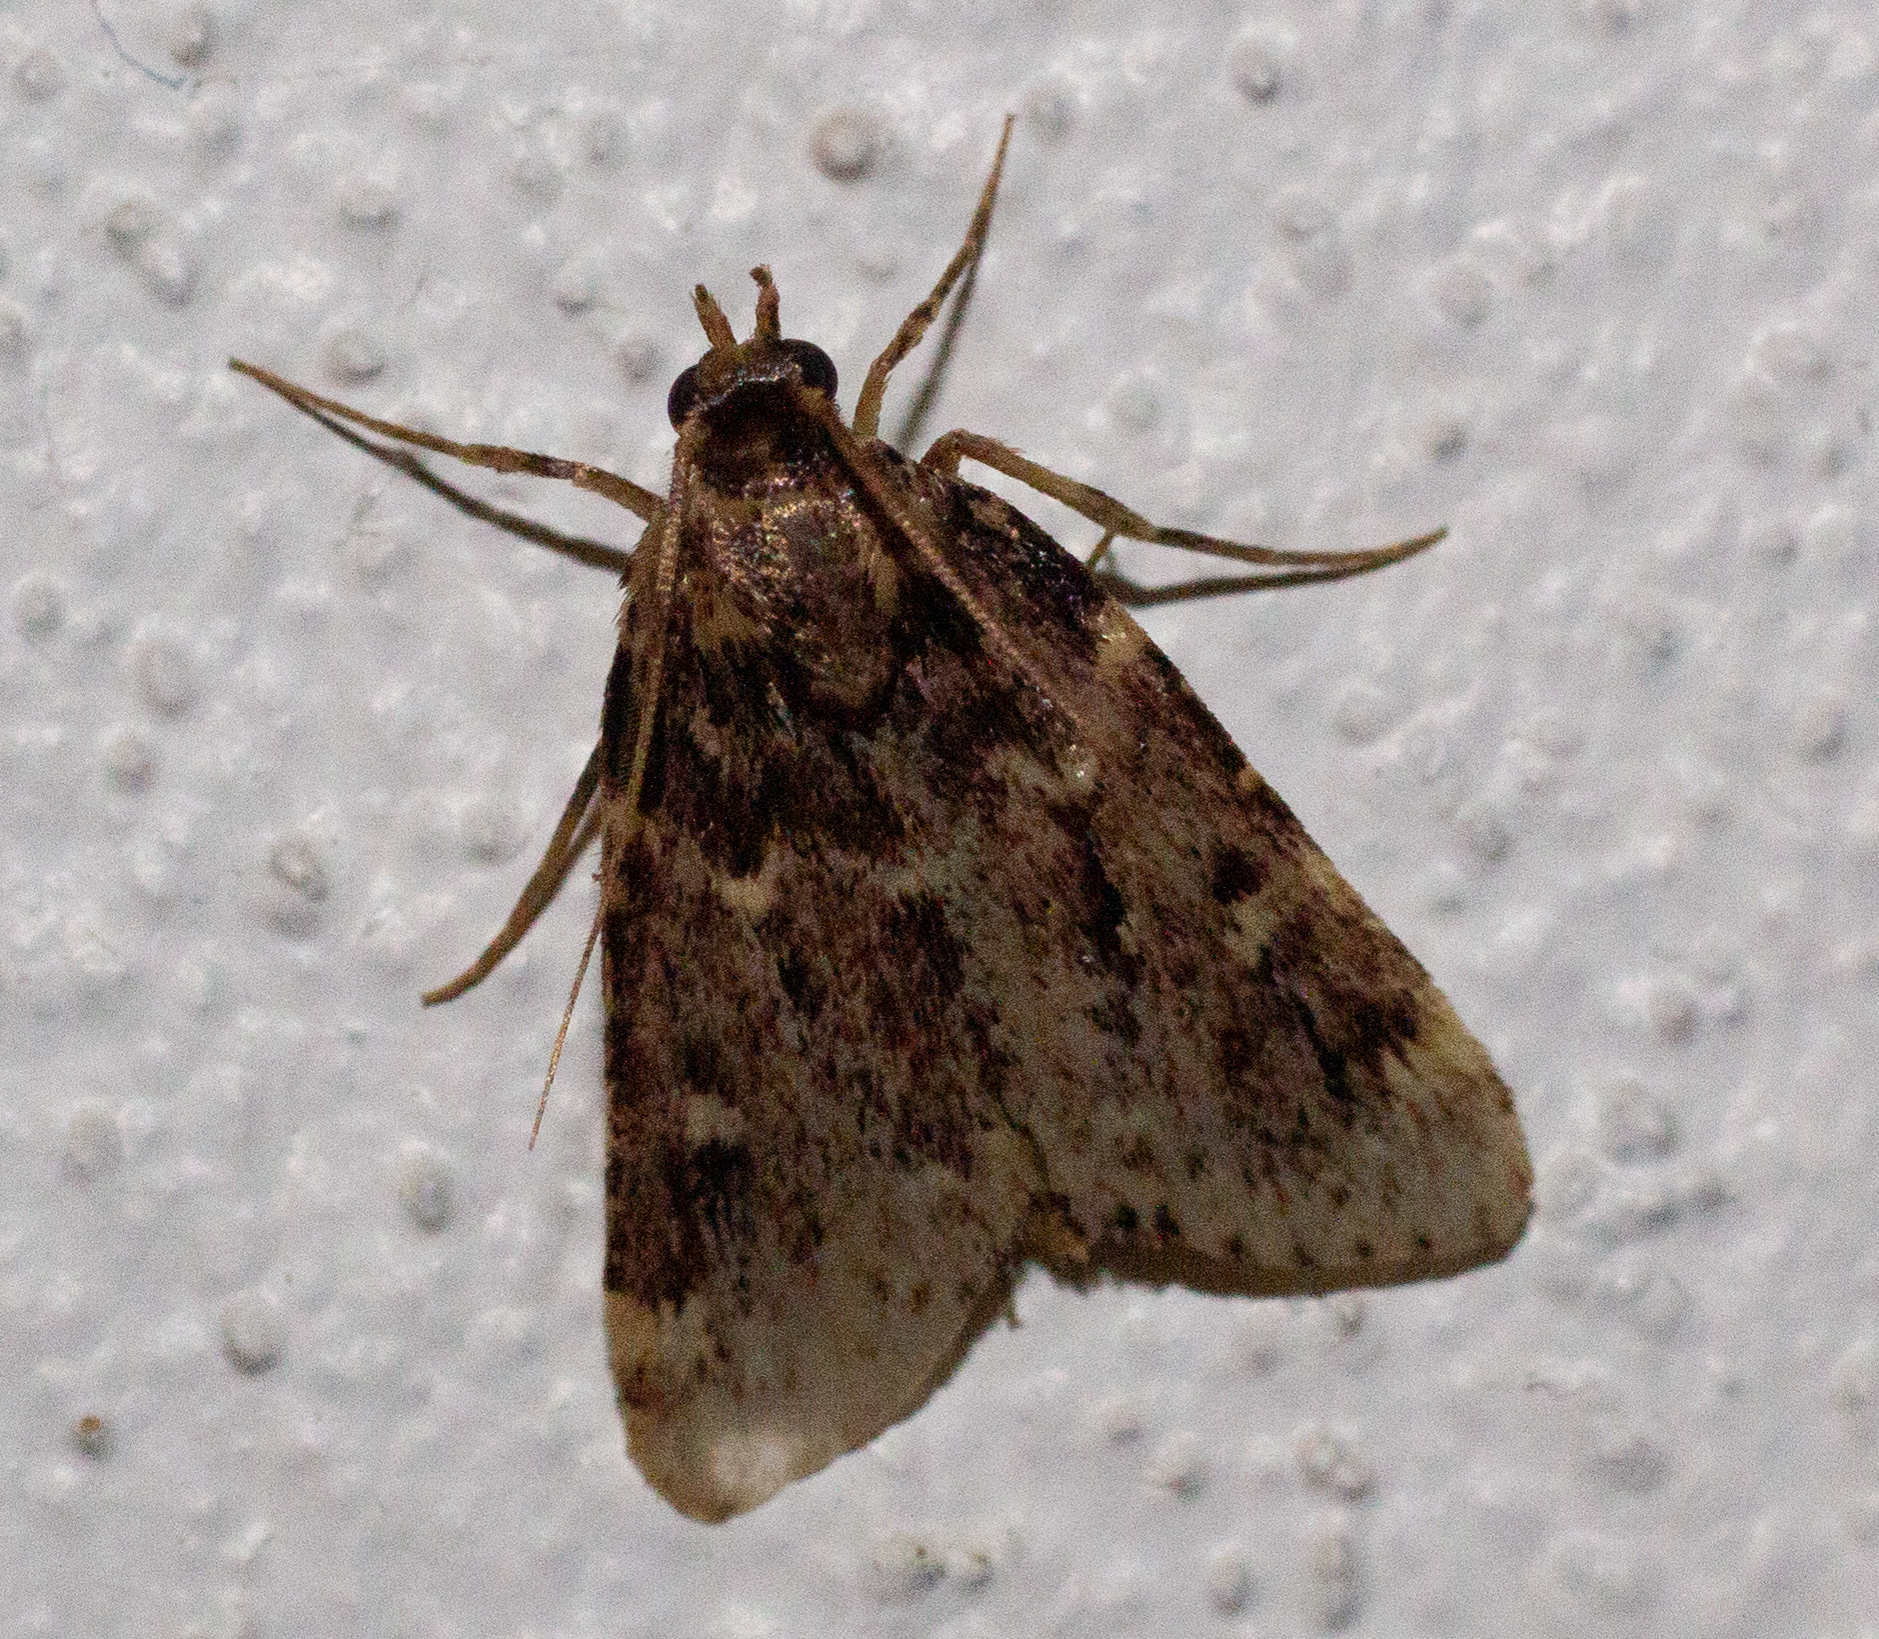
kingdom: Animalia
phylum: Arthropoda
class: Insecta
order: Lepidoptera
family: Pyralidae
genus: Aglossa
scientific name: Aglossa caprealis
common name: Small tabby
